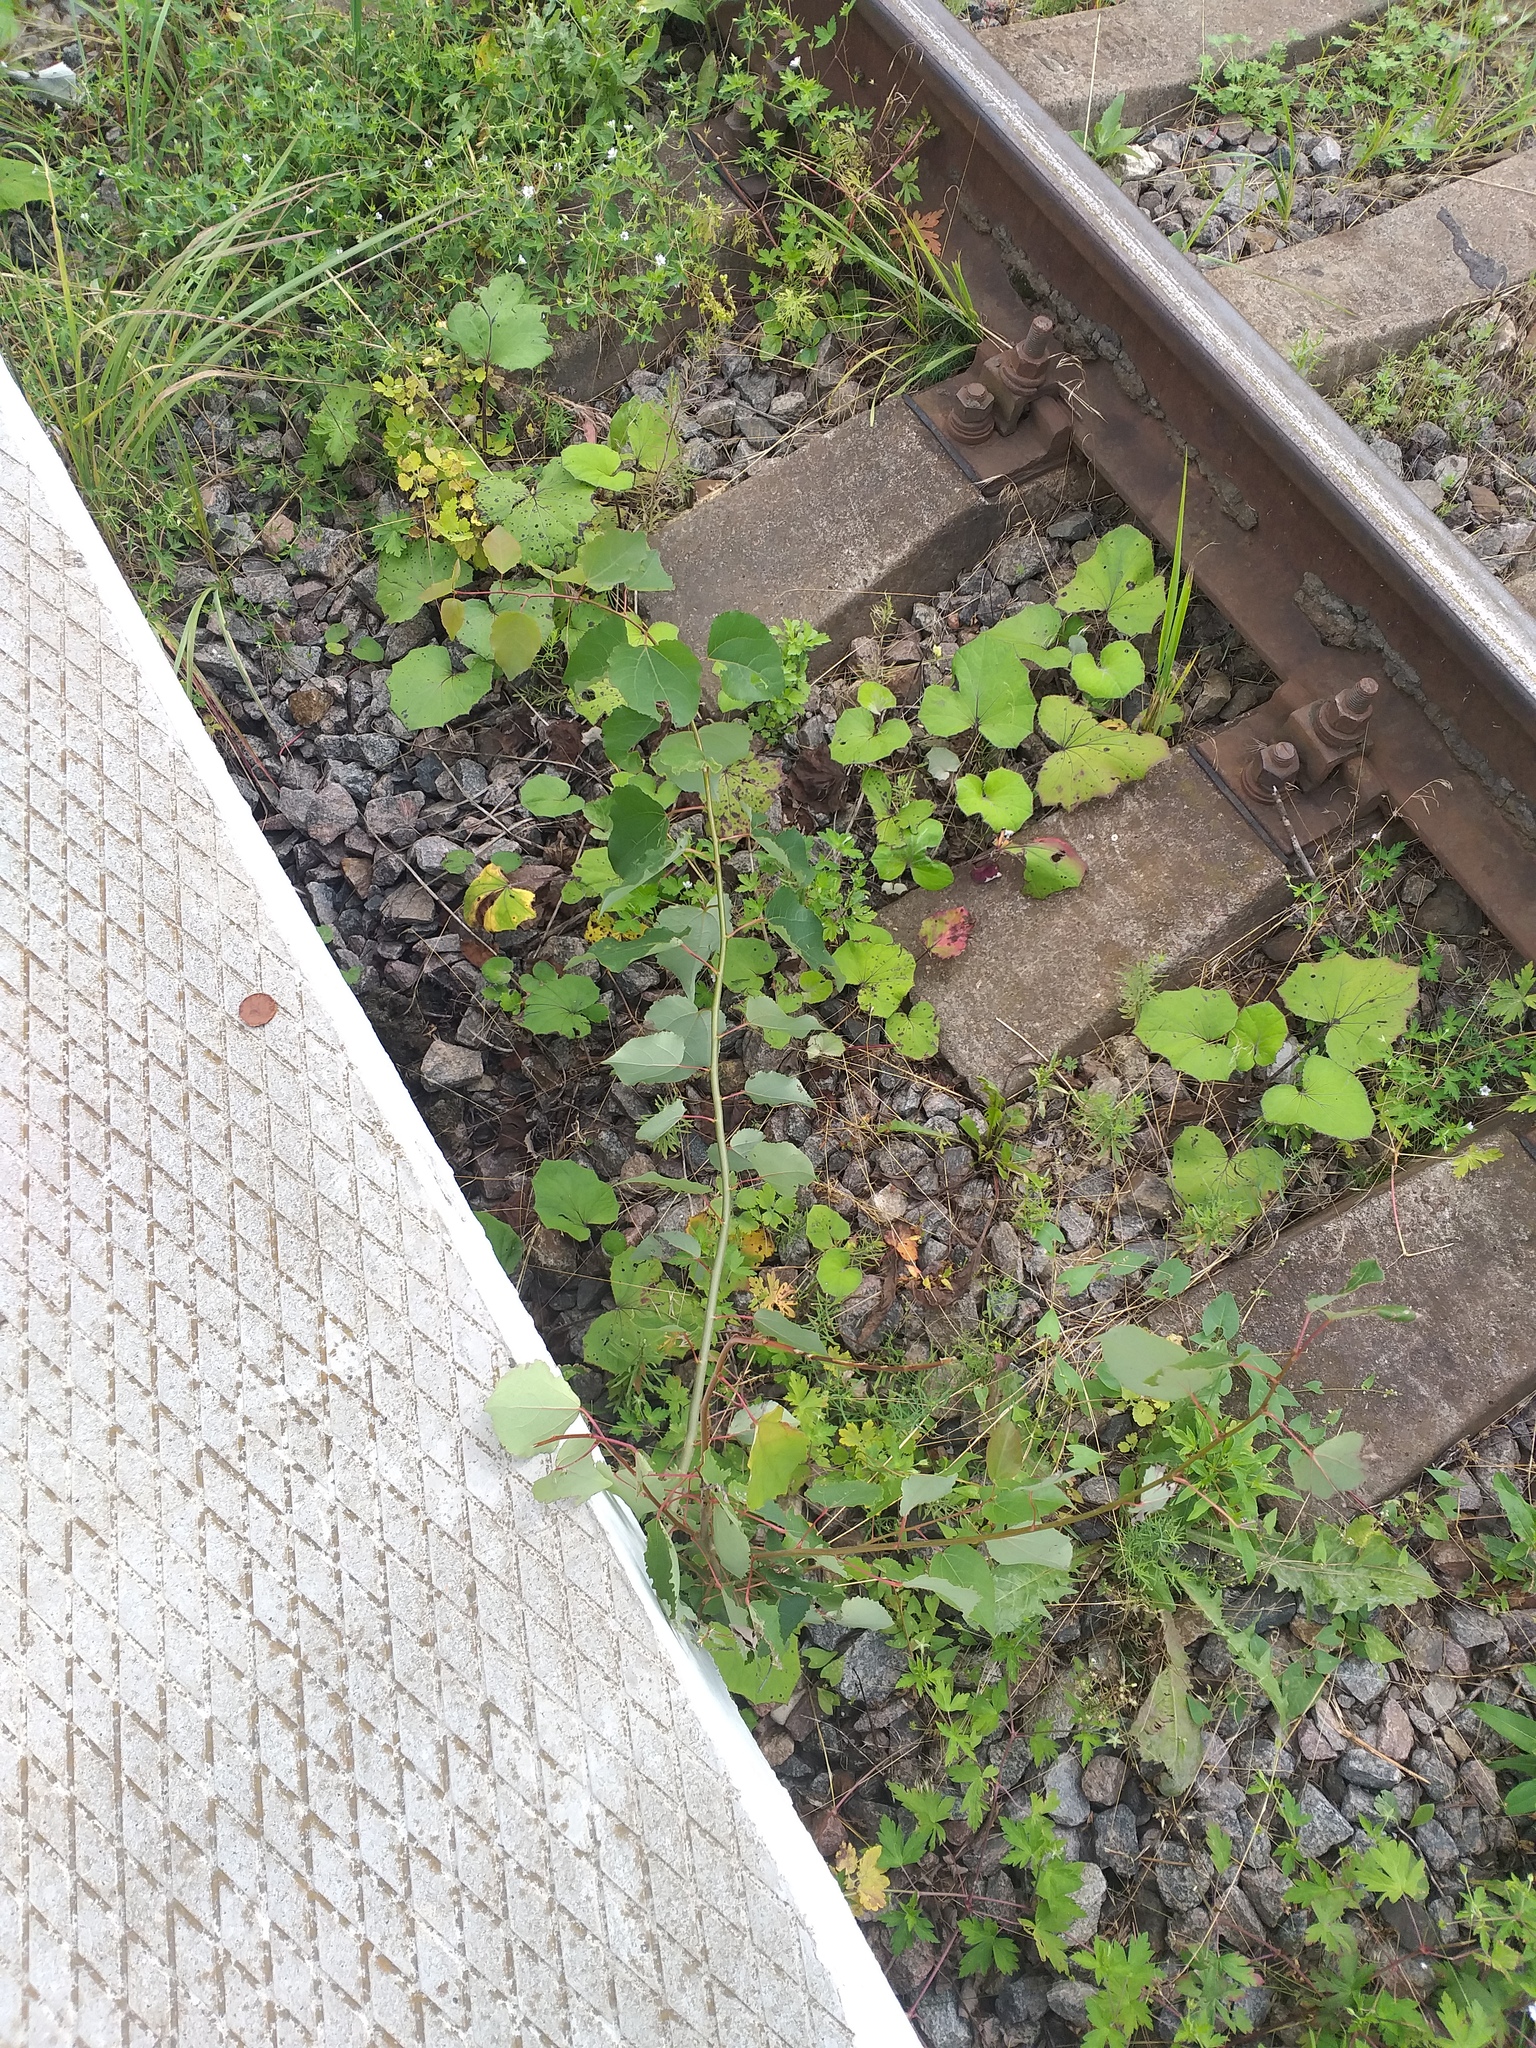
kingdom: Plantae
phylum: Tracheophyta
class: Magnoliopsida
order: Malpighiales
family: Salicaceae
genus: Populus
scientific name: Populus tremula
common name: European aspen
